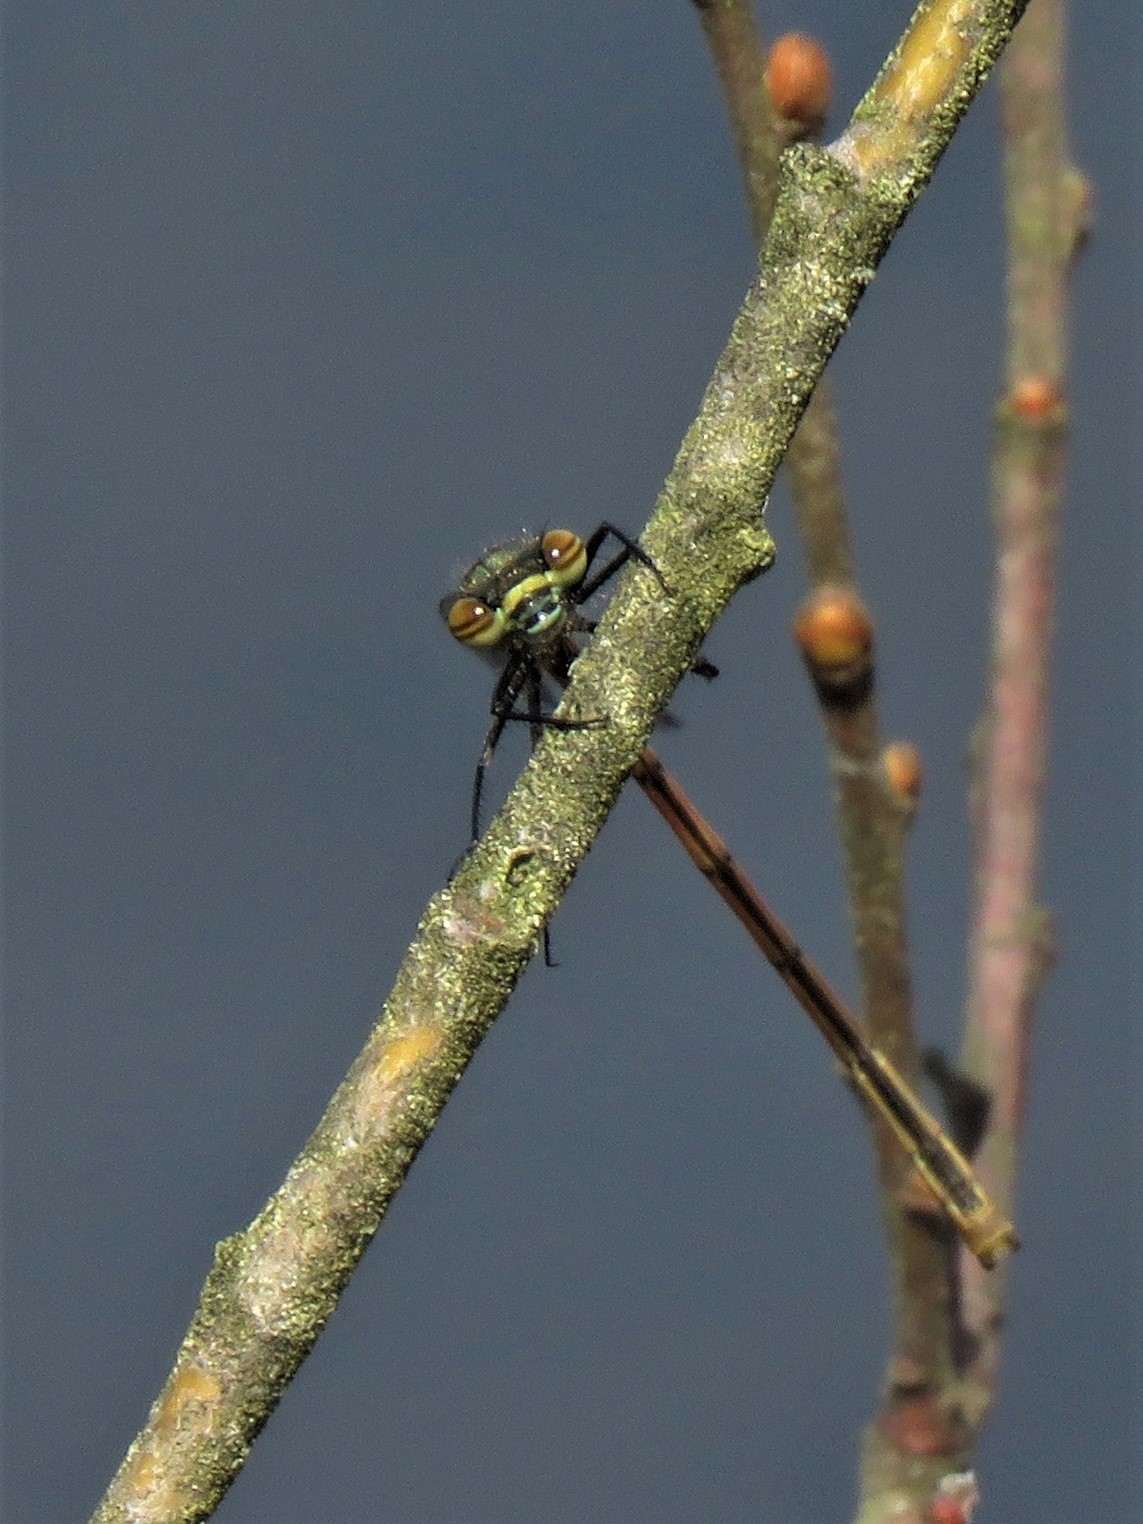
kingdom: Animalia
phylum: Arthropoda
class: Insecta
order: Odonata
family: Coenagrionidae
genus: Pyrrhosoma
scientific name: Pyrrhosoma nymphula
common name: Large red damsel
